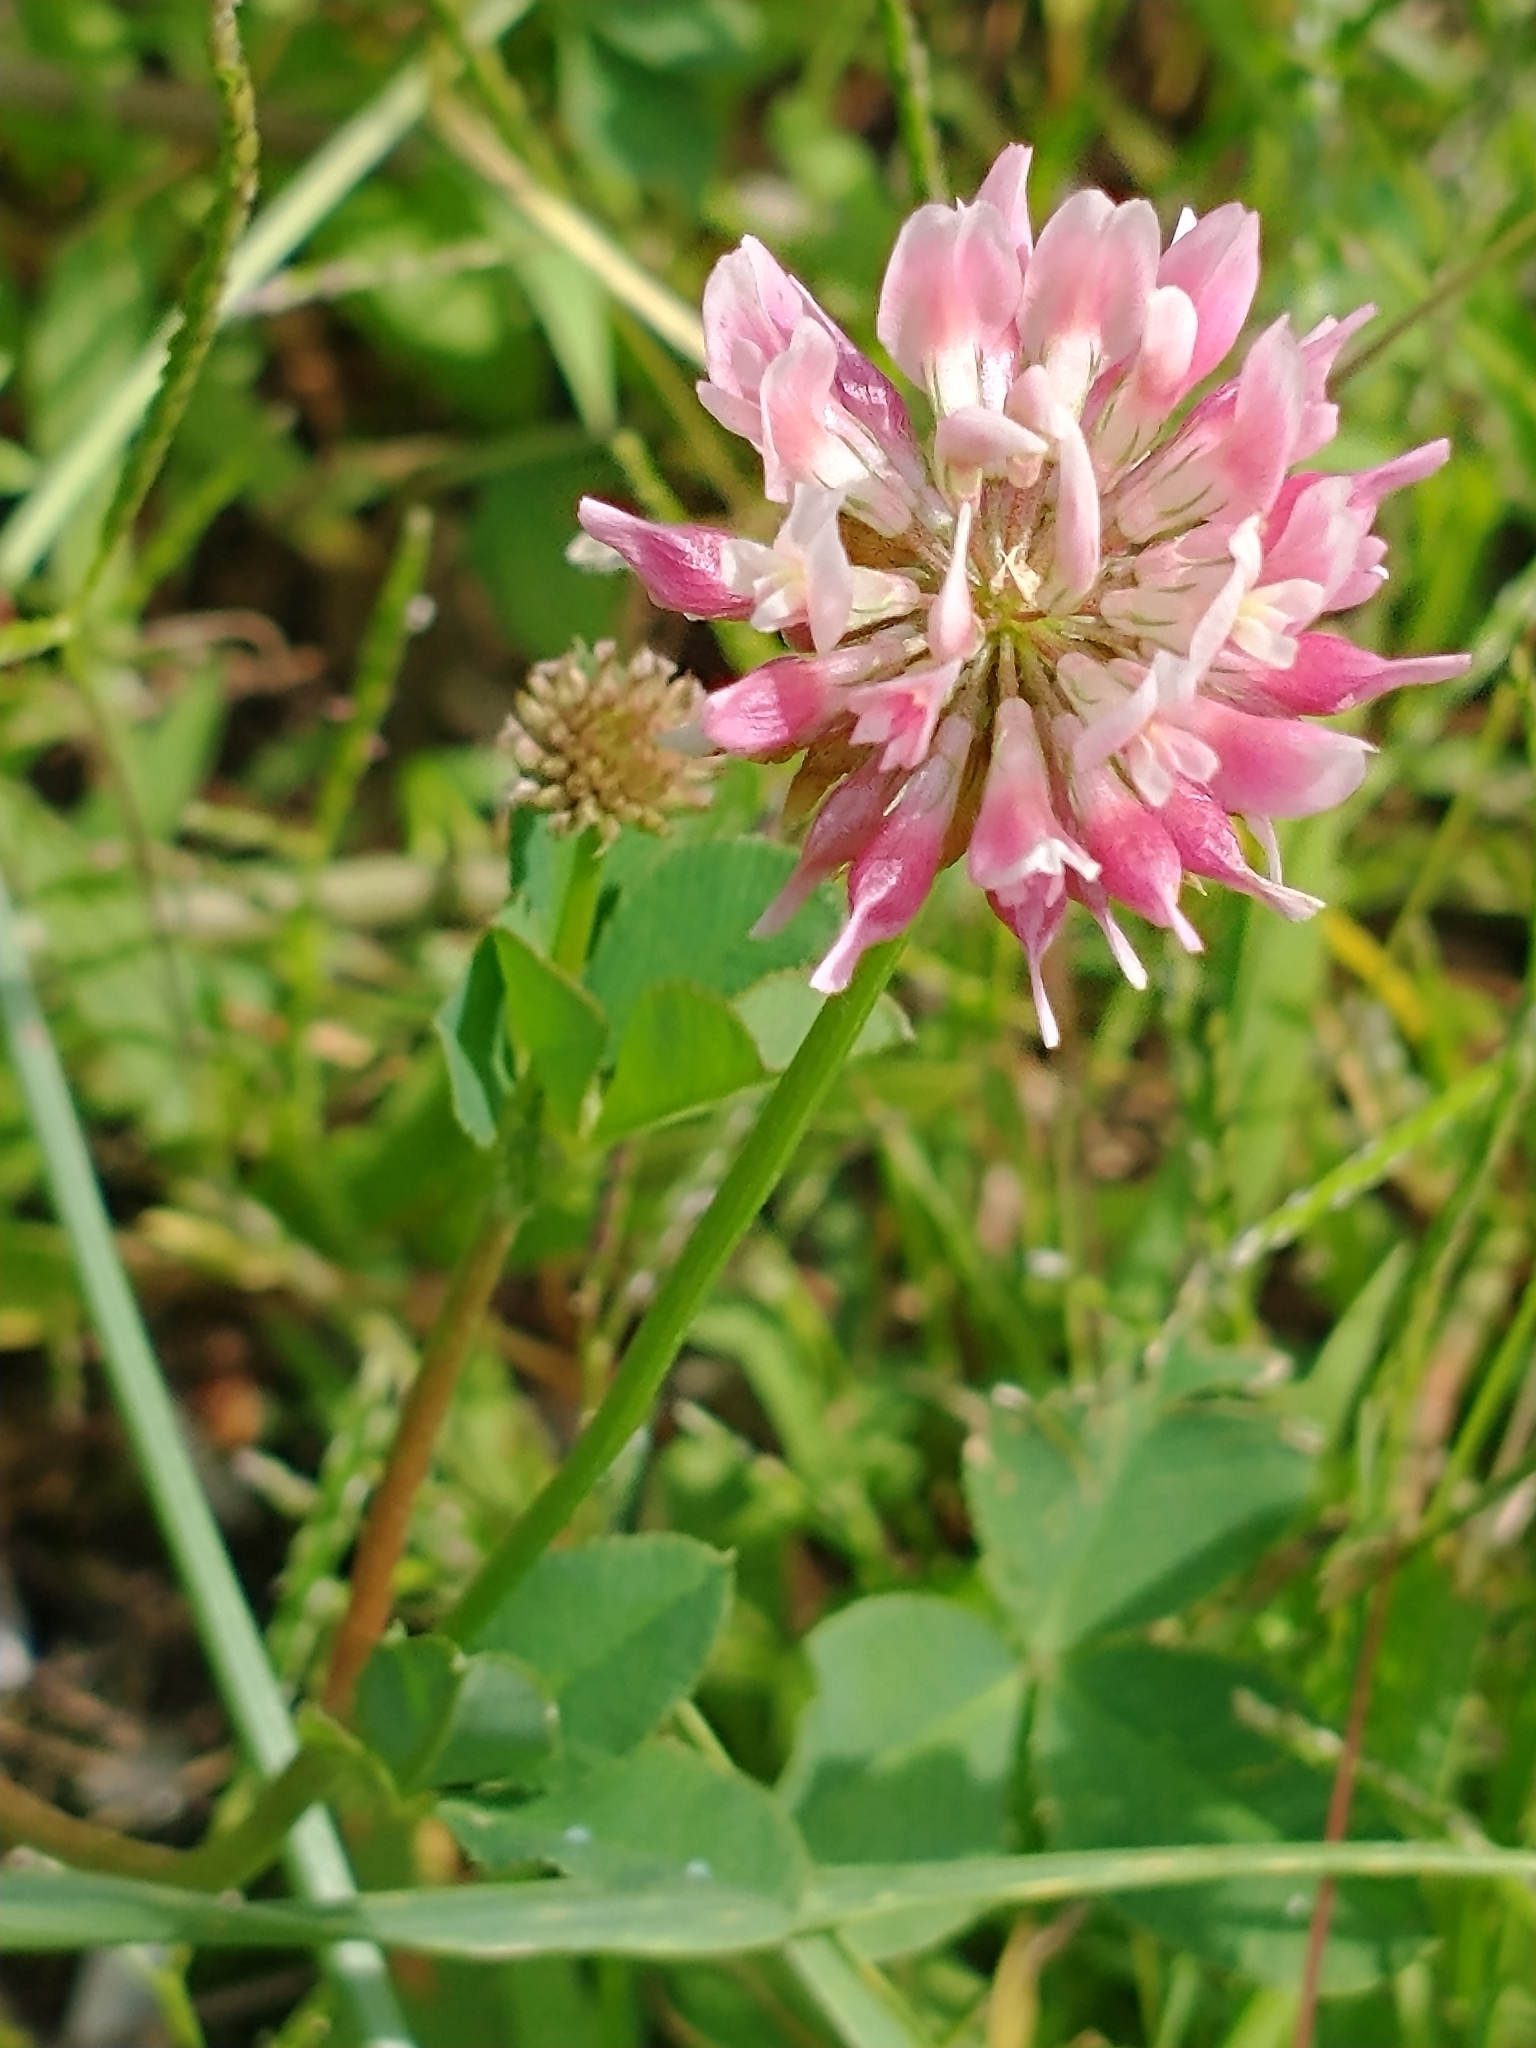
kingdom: Plantae
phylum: Tracheophyta
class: Magnoliopsida
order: Fabales
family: Fabaceae
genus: Trifolium
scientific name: Trifolium hybridum
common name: Alsike clover
